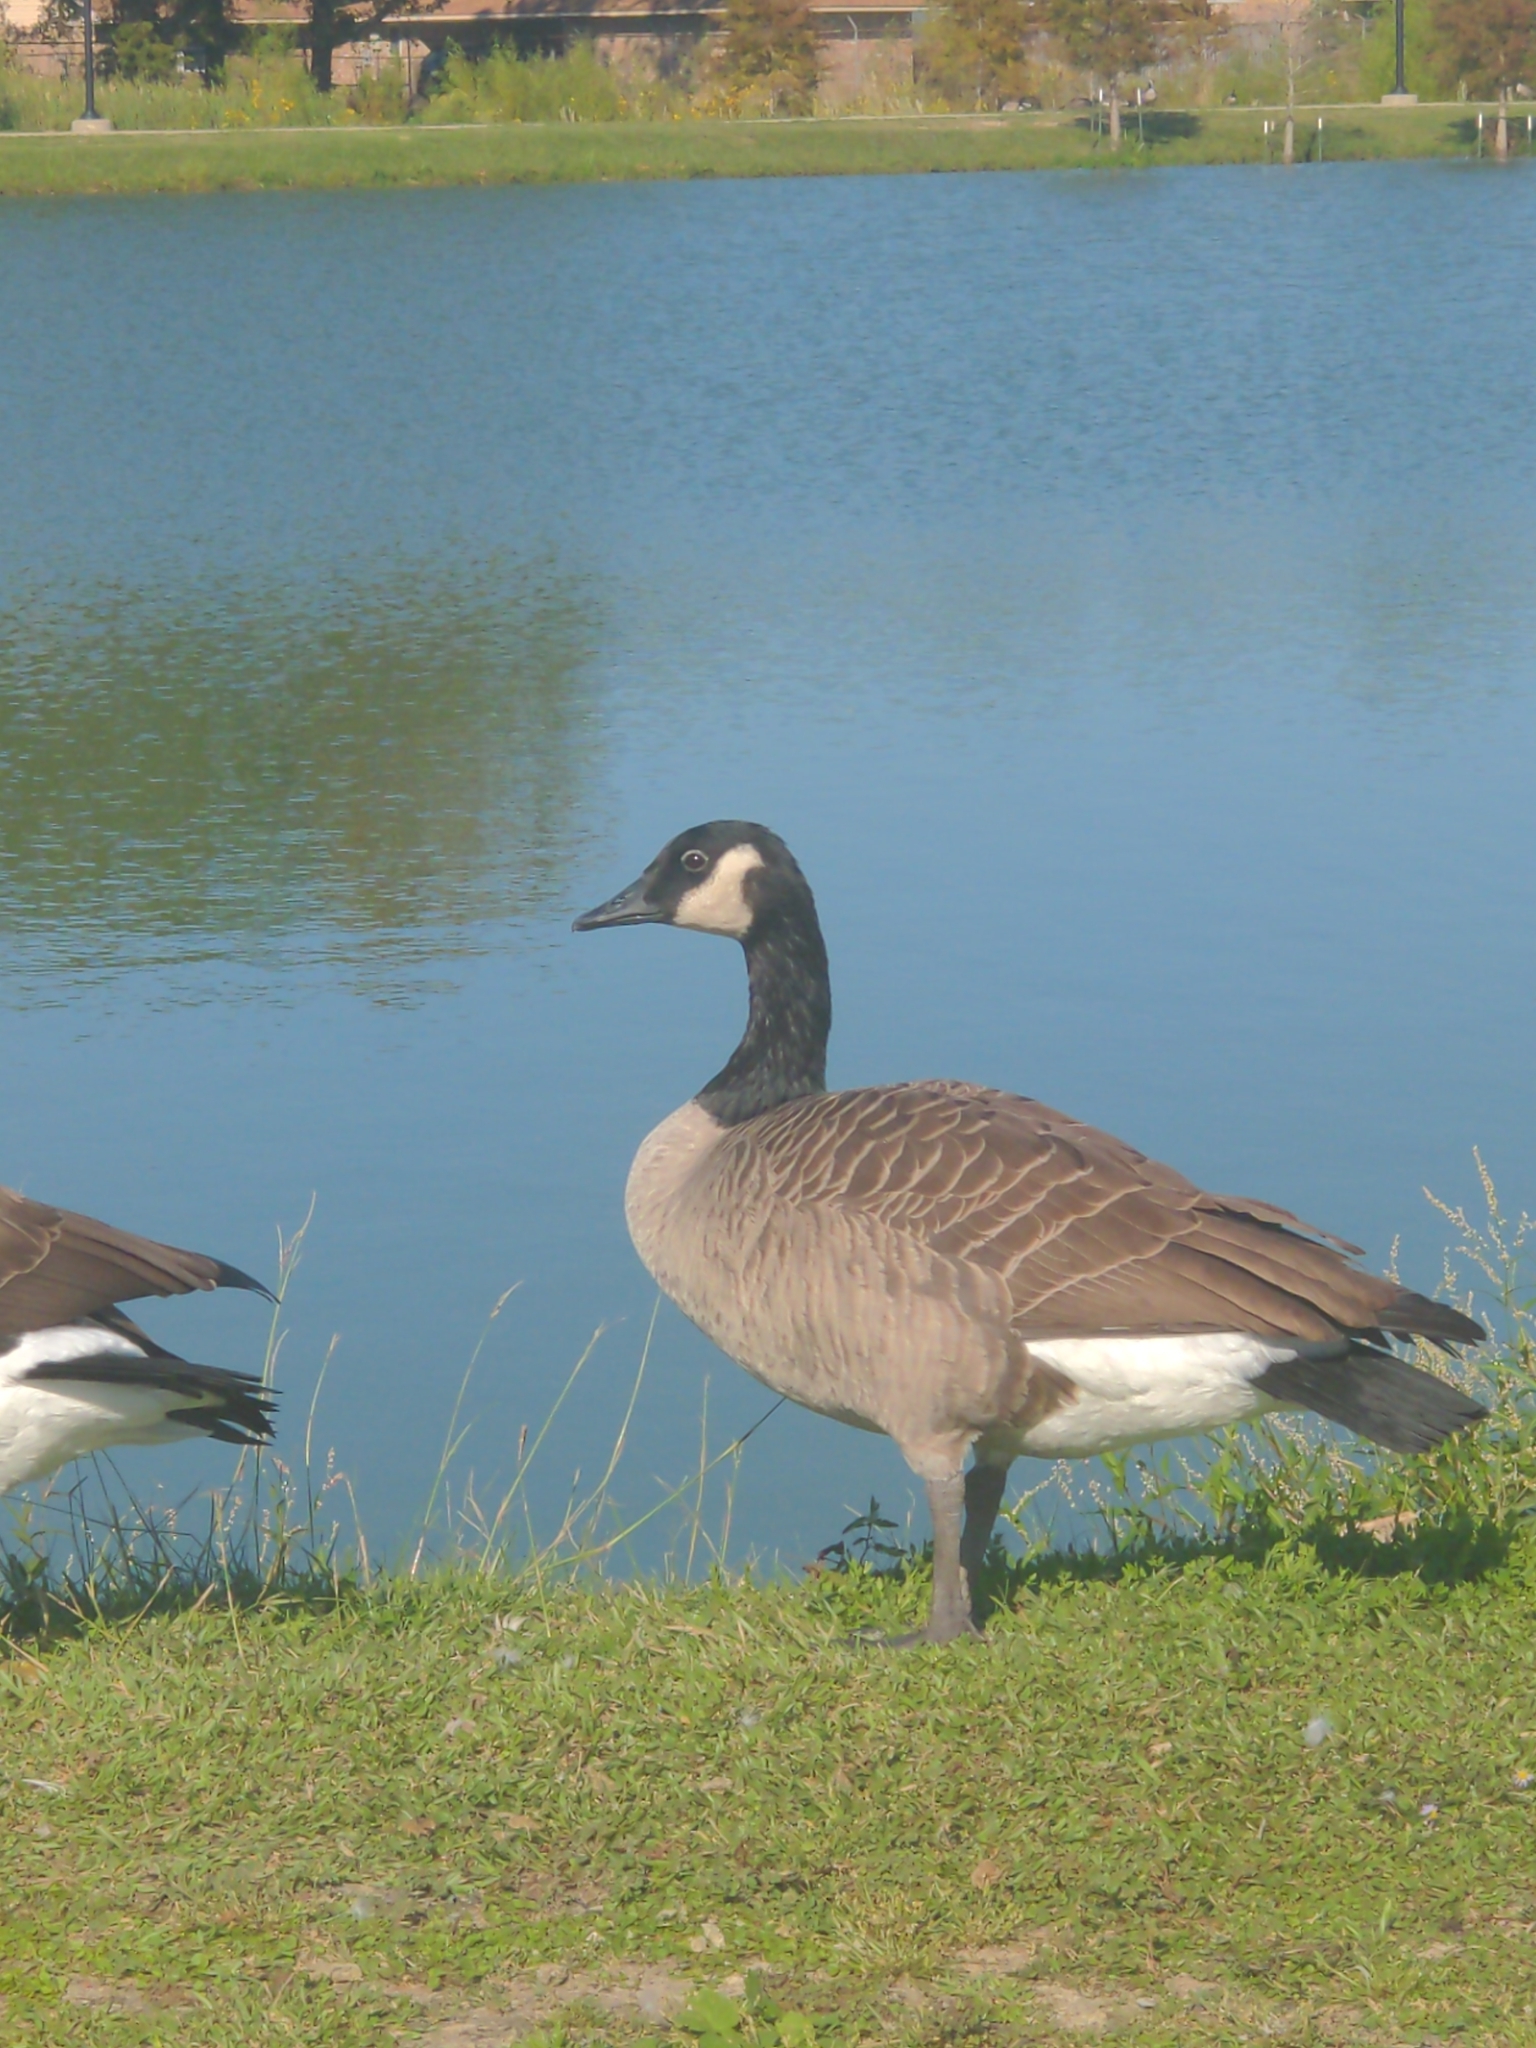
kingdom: Animalia
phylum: Chordata
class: Aves
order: Anseriformes
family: Anatidae
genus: Branta
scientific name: Branta canadensis
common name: Canada goose
